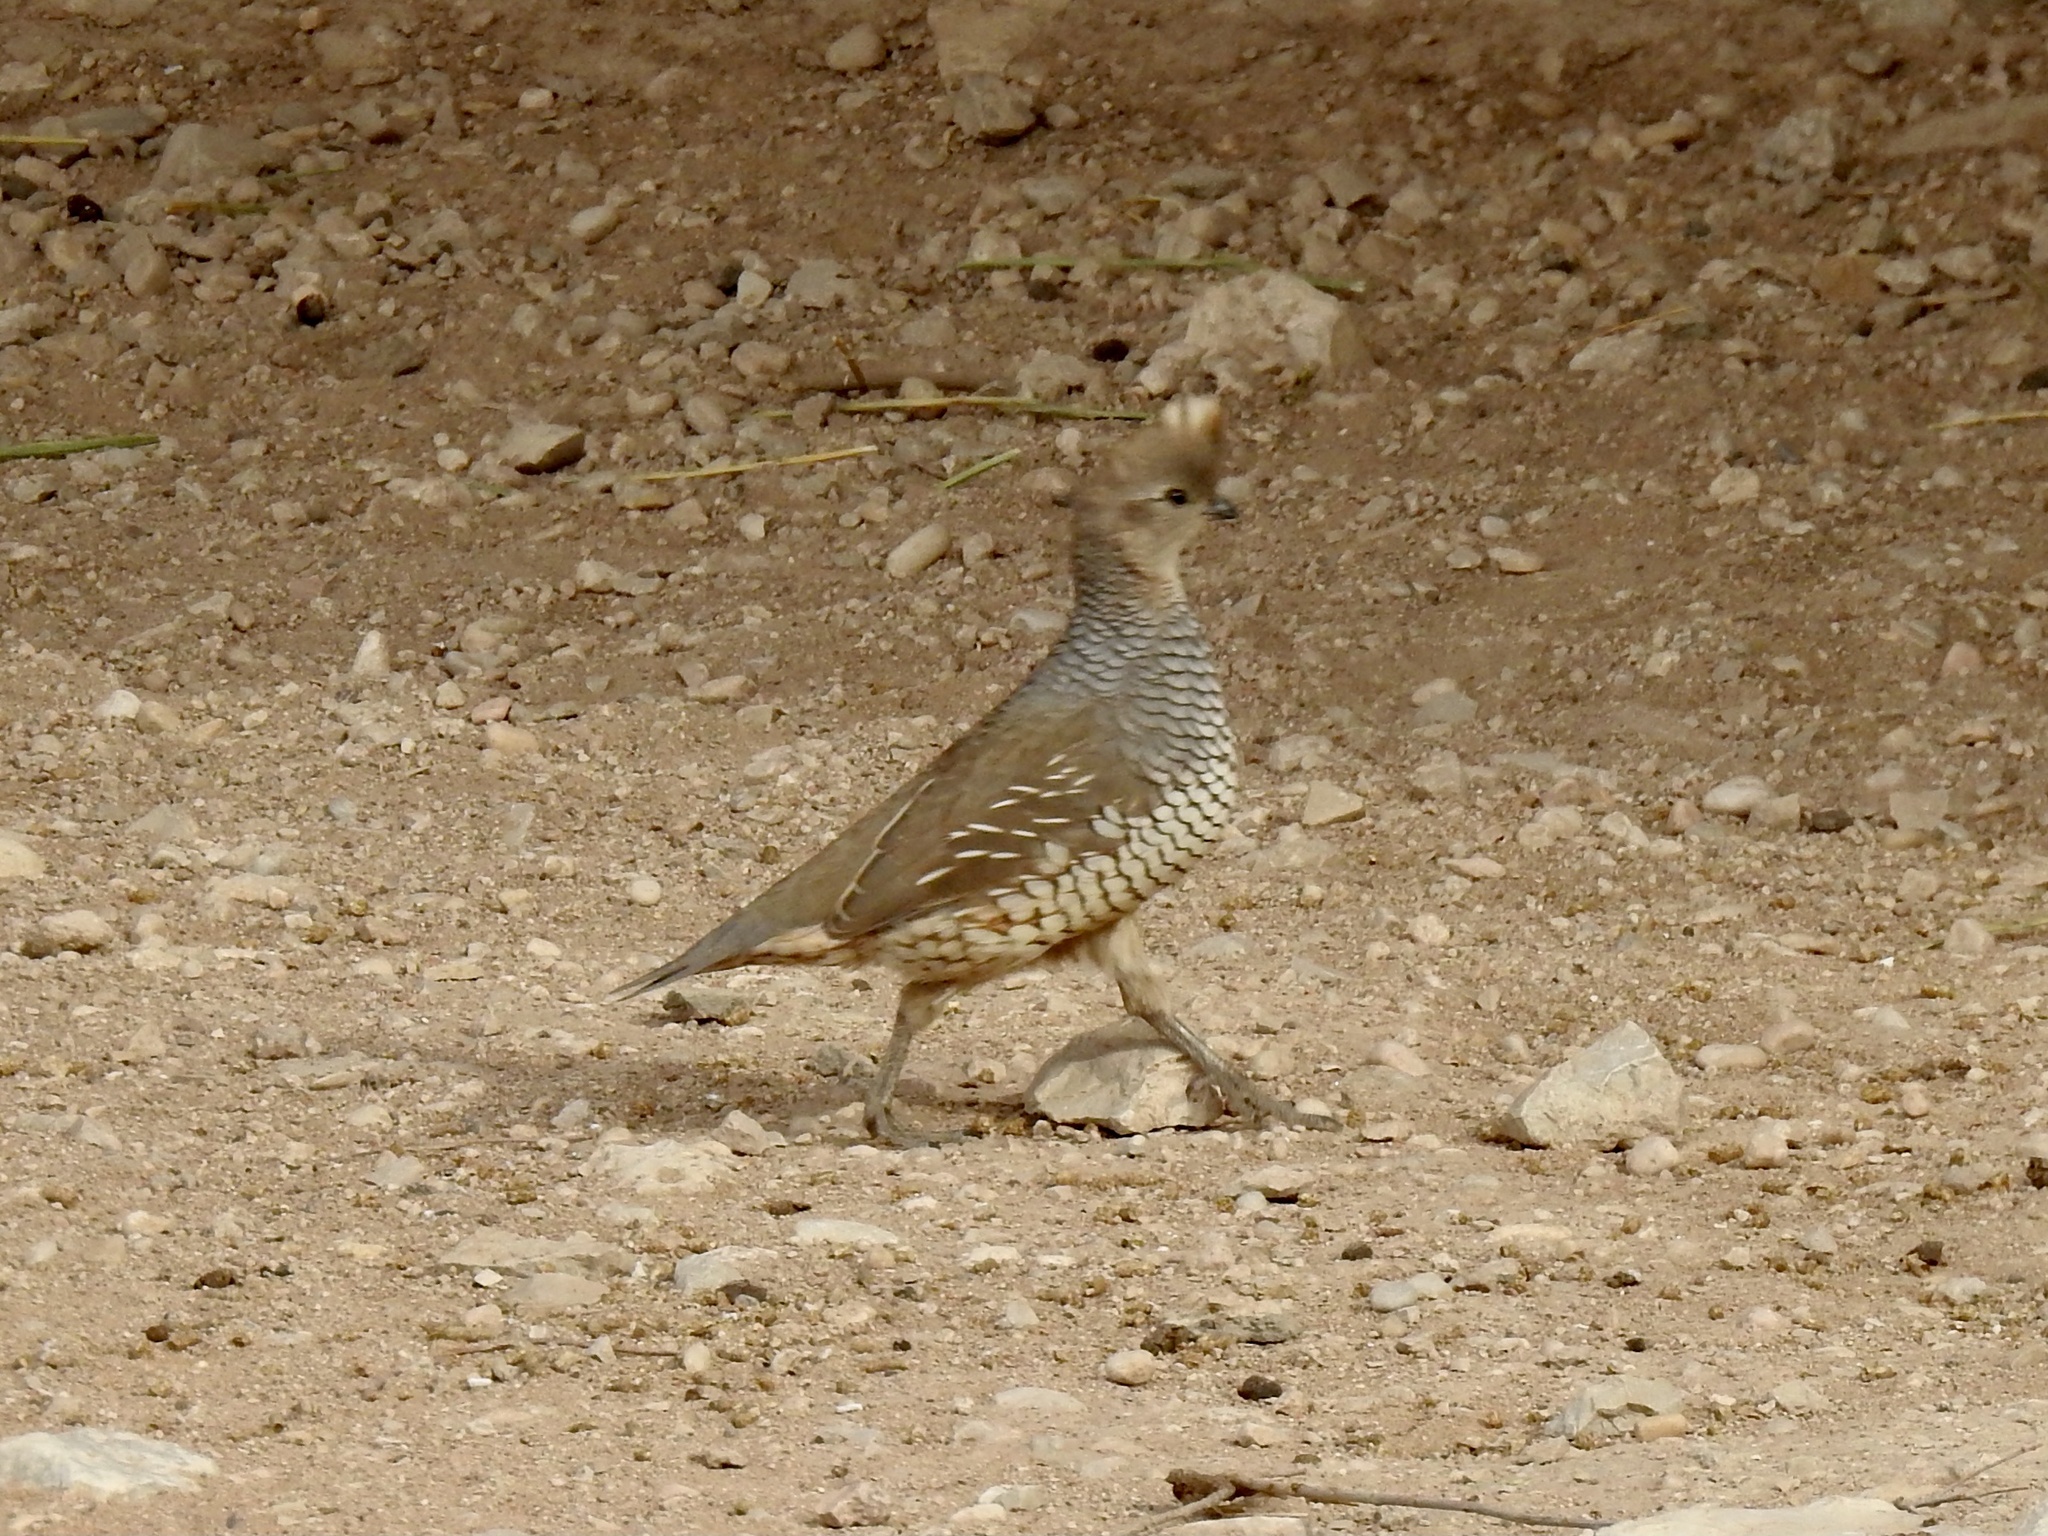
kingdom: Animalia
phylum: Chordata
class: Aves
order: Galliformes
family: Odontophoridae
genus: Callipepla
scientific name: Callipepla squamata
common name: Scaled quail
